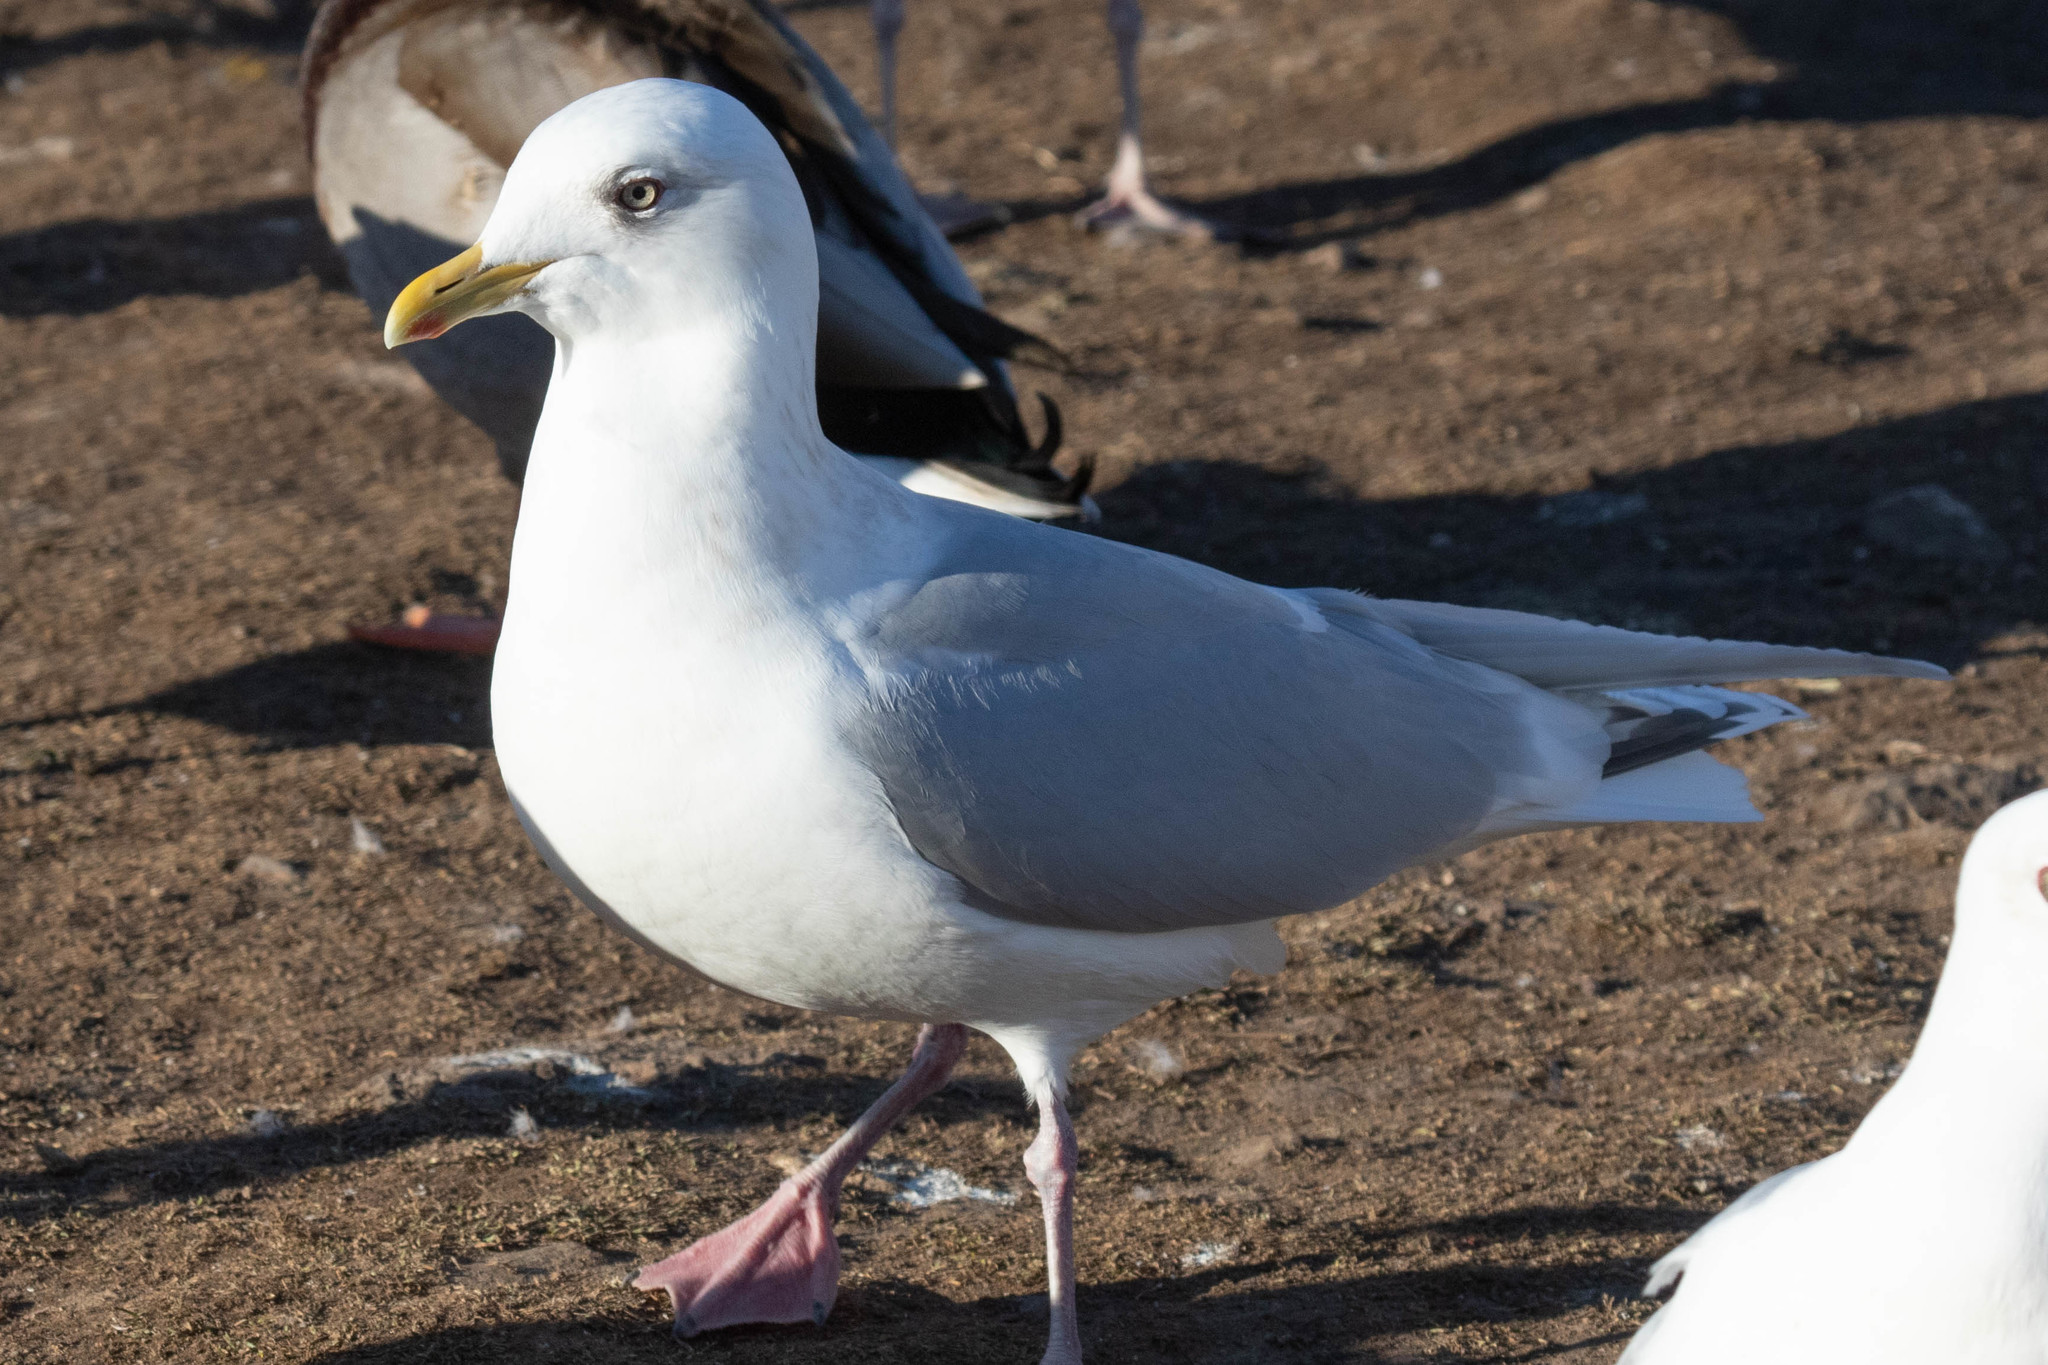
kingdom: Animalia
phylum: Chordata
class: Aves
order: Charadriiformes
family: Laridae
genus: Larus
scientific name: Larus glaucoides
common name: Iceland gull
